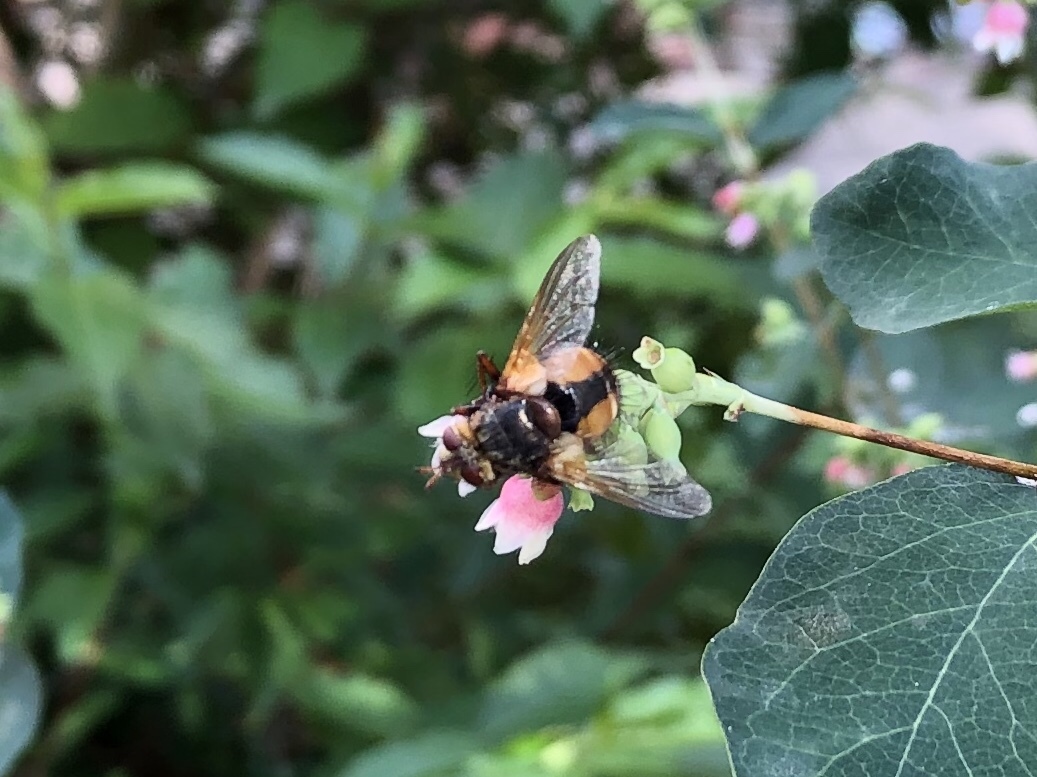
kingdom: Animalia
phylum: Arthropoda
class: Insecta
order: Diptera
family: Tachinidae
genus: Tachina
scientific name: Tachina fera
